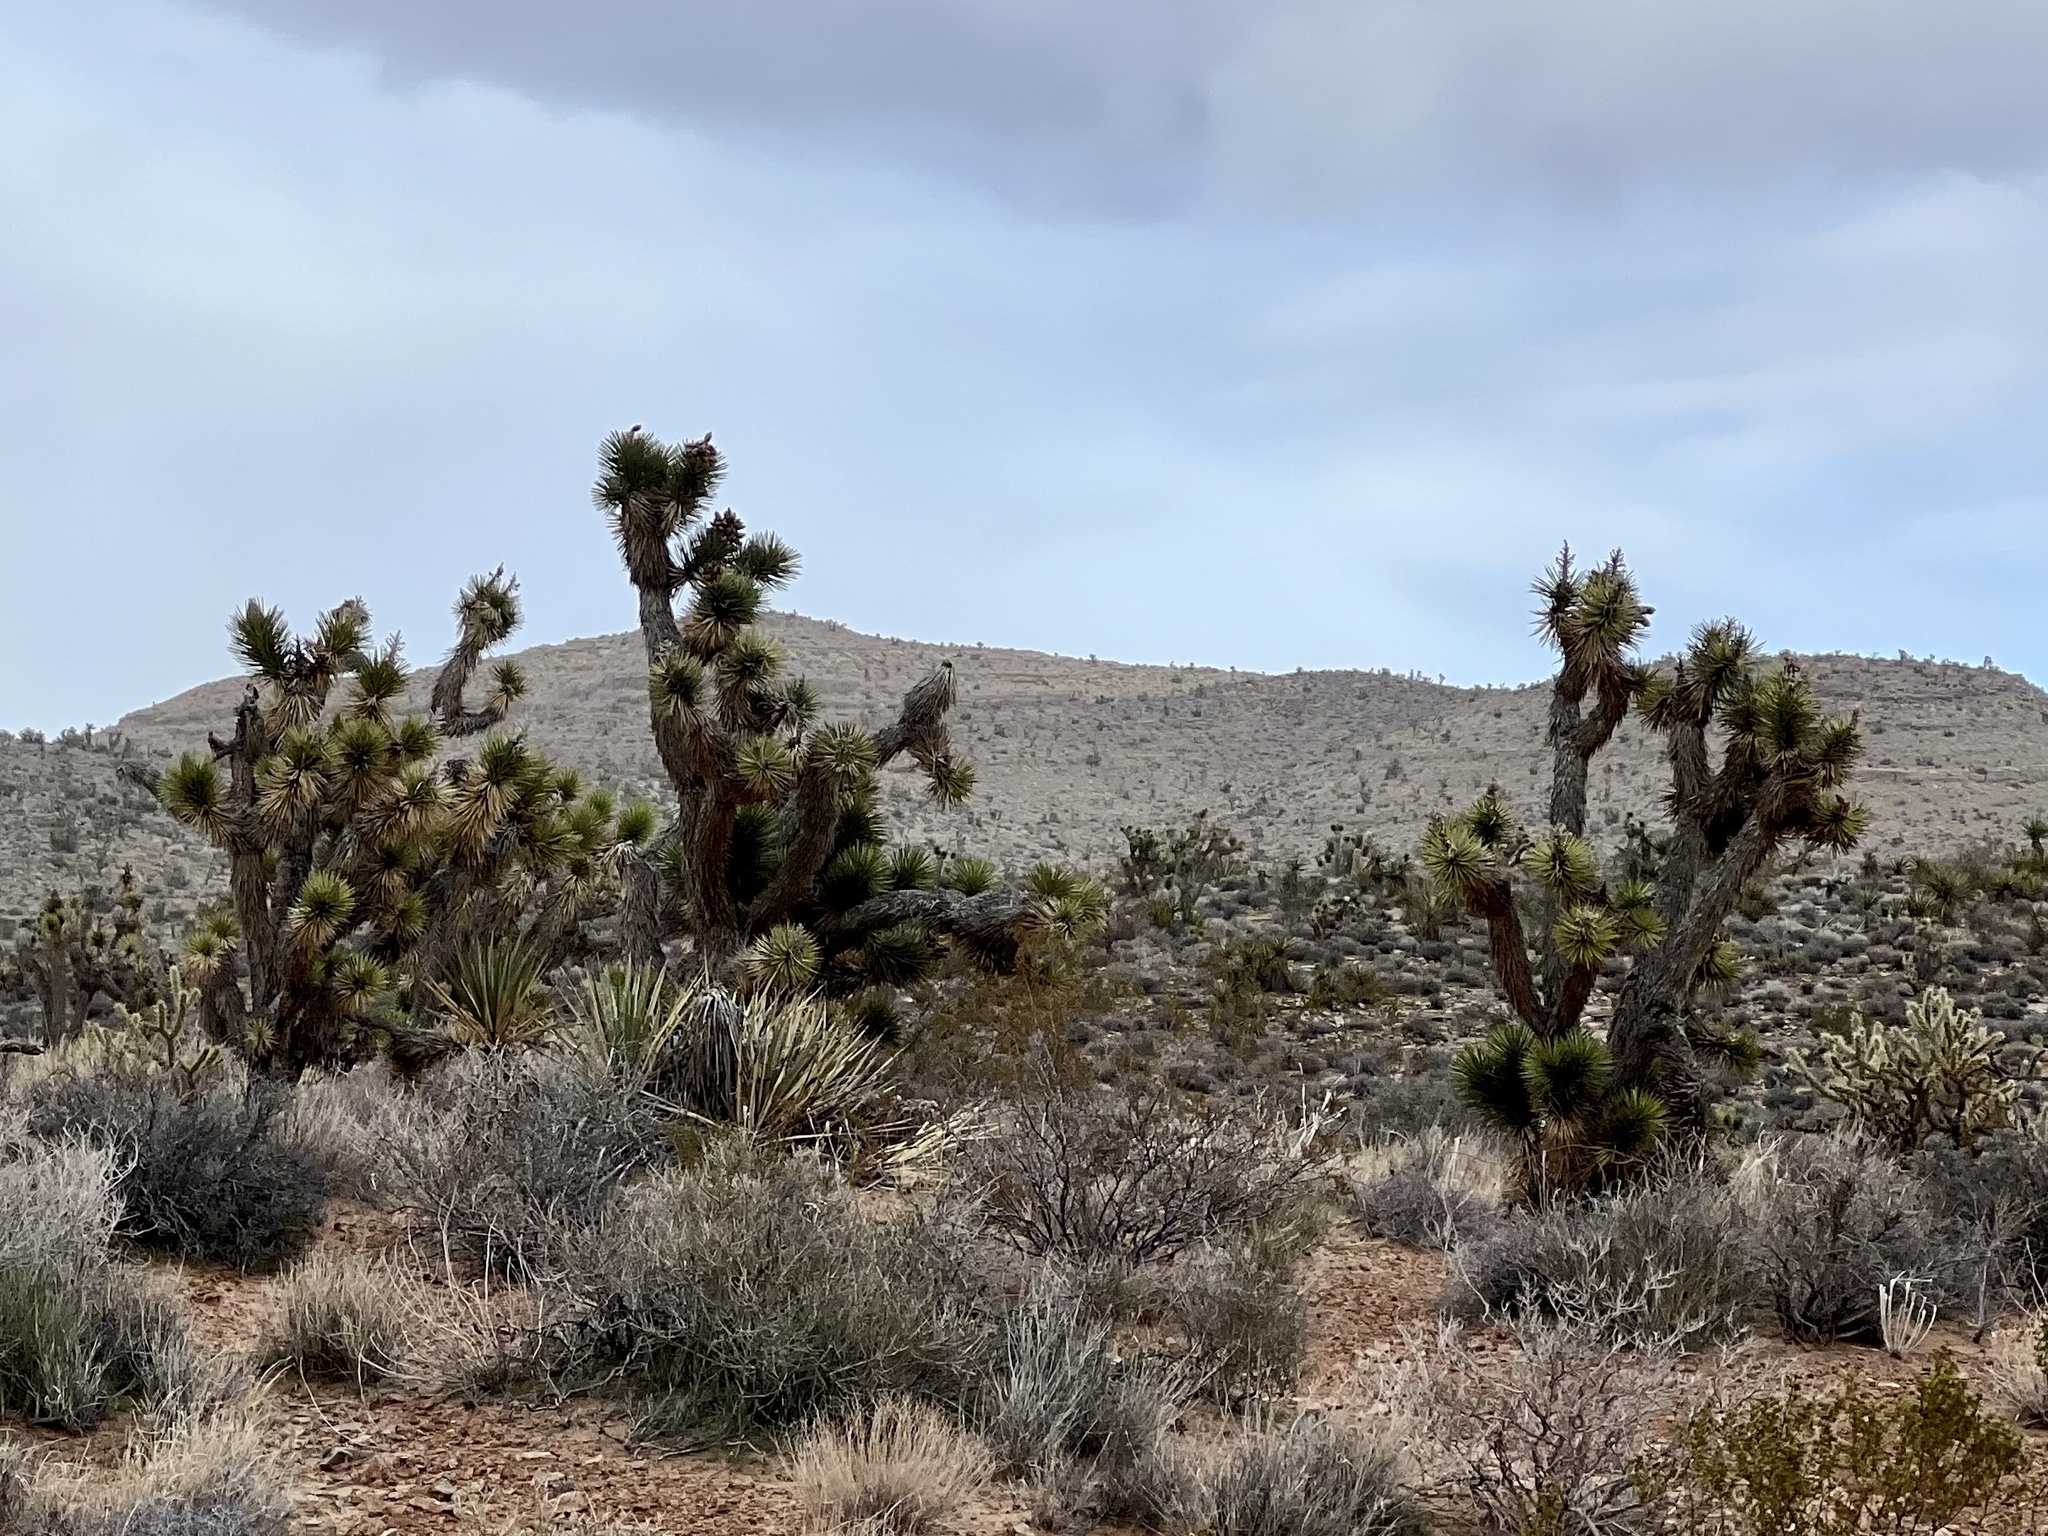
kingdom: Plantae
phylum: Tracheophyta
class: Liliopsida
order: Asparagales
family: Asparagaceae
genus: Yucca
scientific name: Yucca brevifolia
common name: Joshua tree
